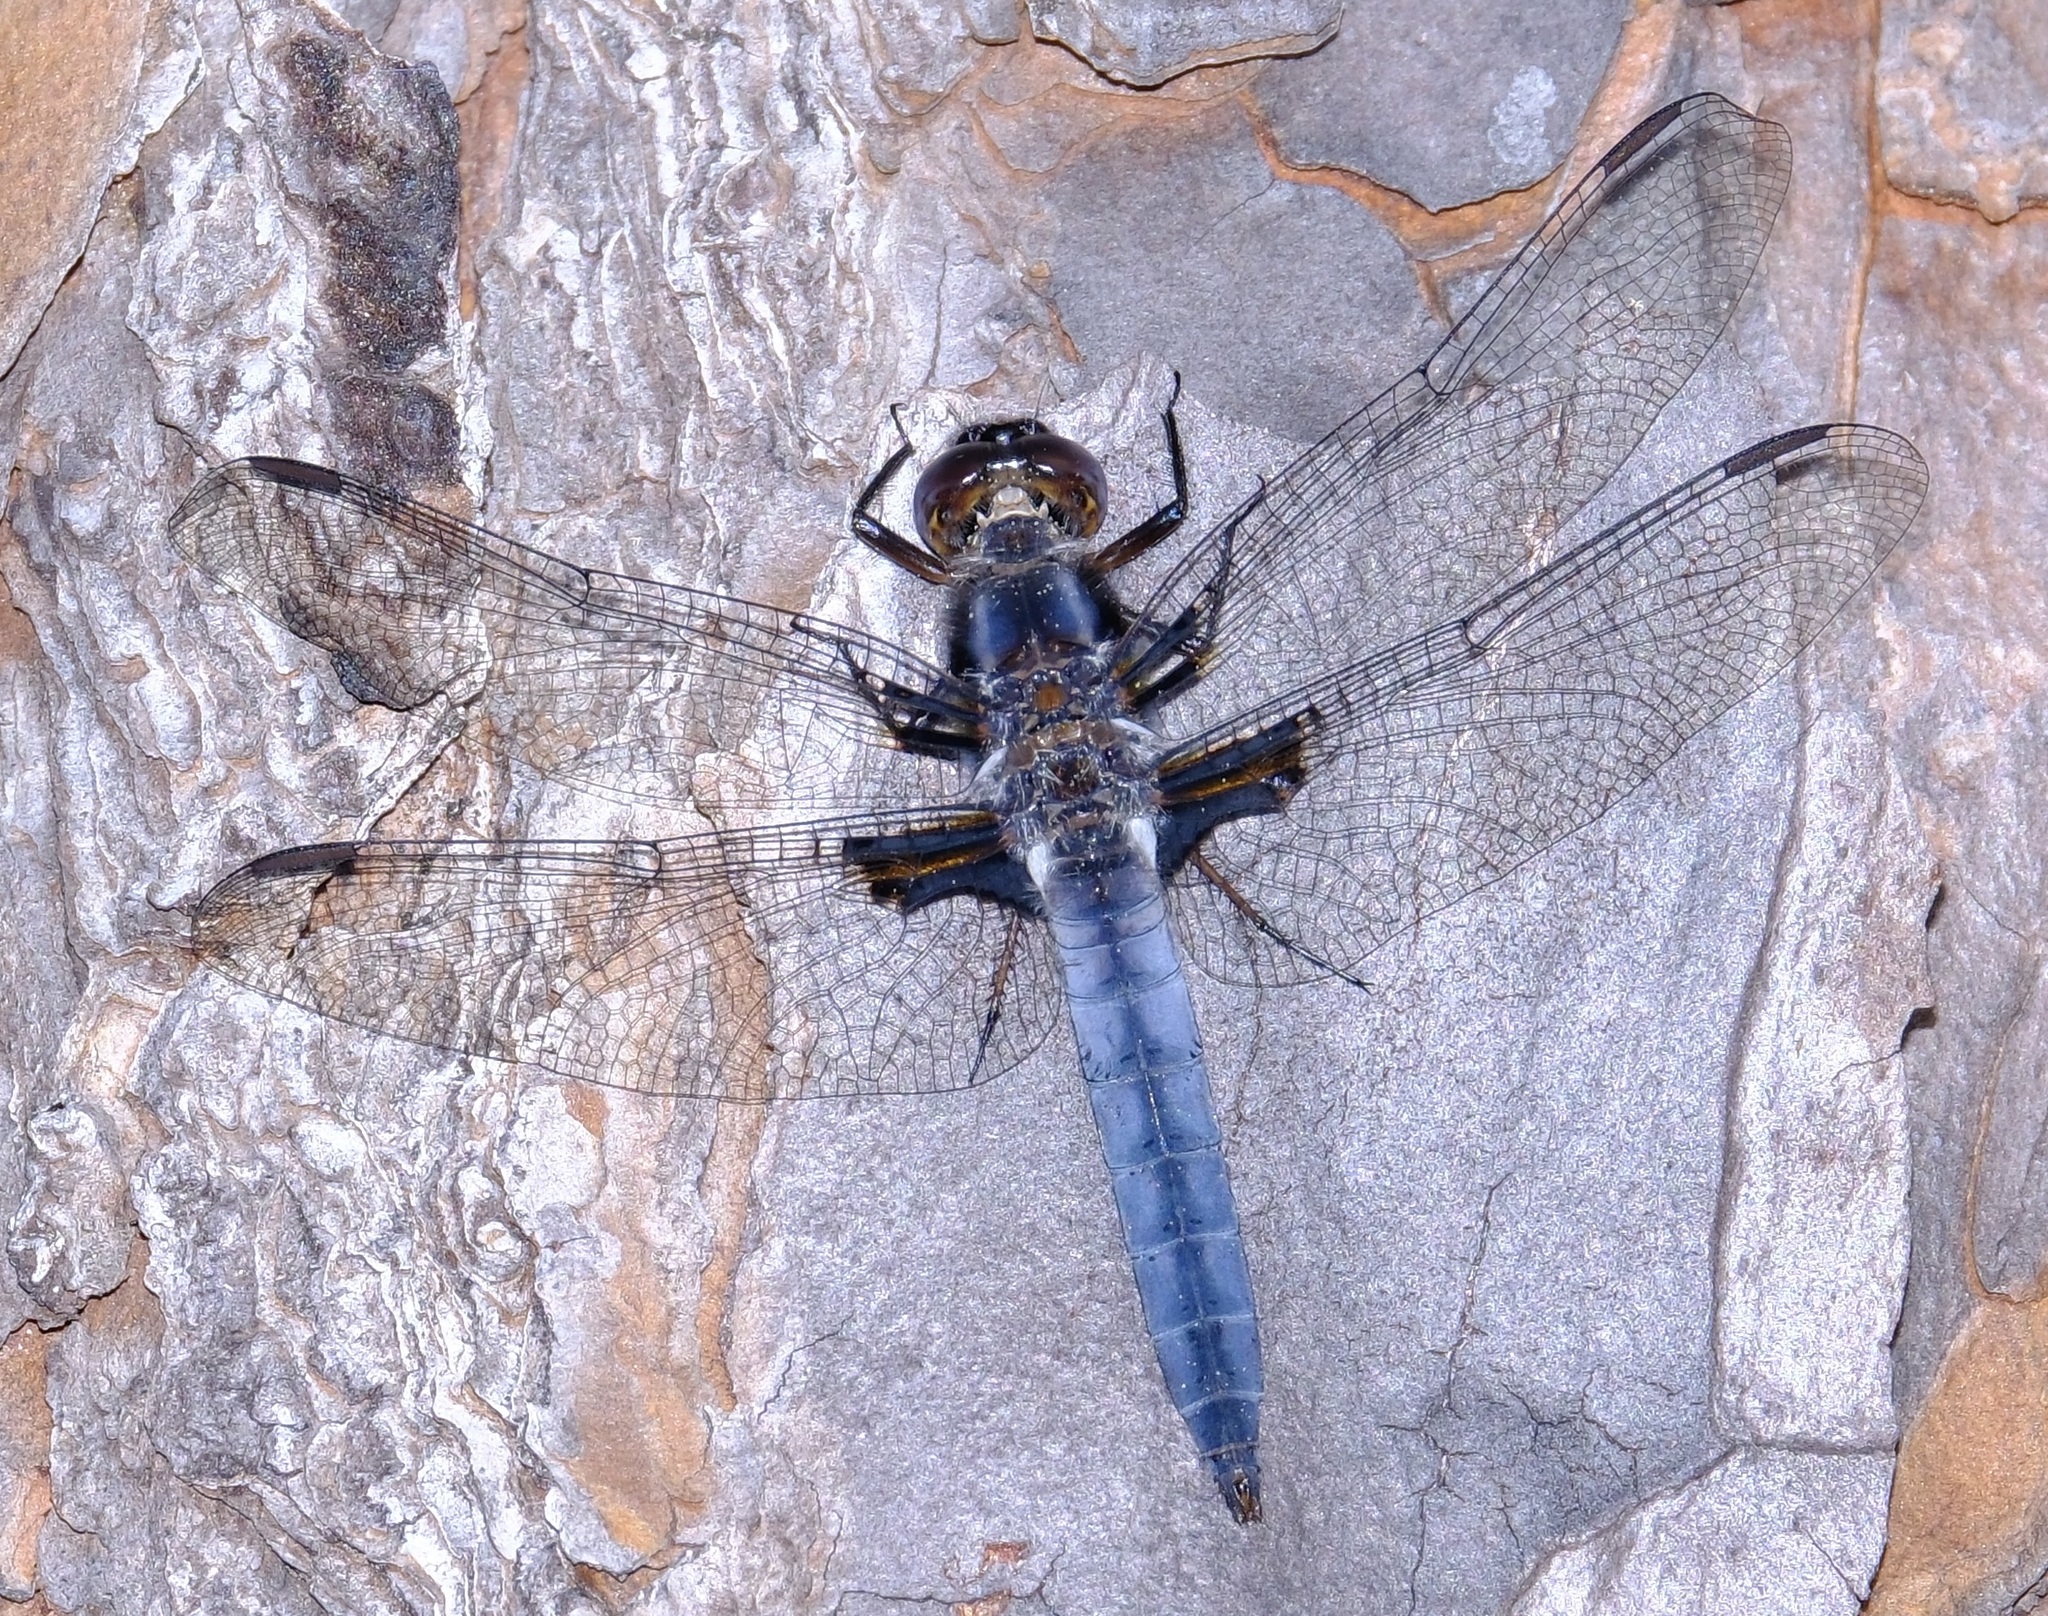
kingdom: Animalia
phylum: Arthropoda
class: Insecta
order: Odonata
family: Libellulidae
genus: Ladona
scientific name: Ladona deplanata
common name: Blue corporal
